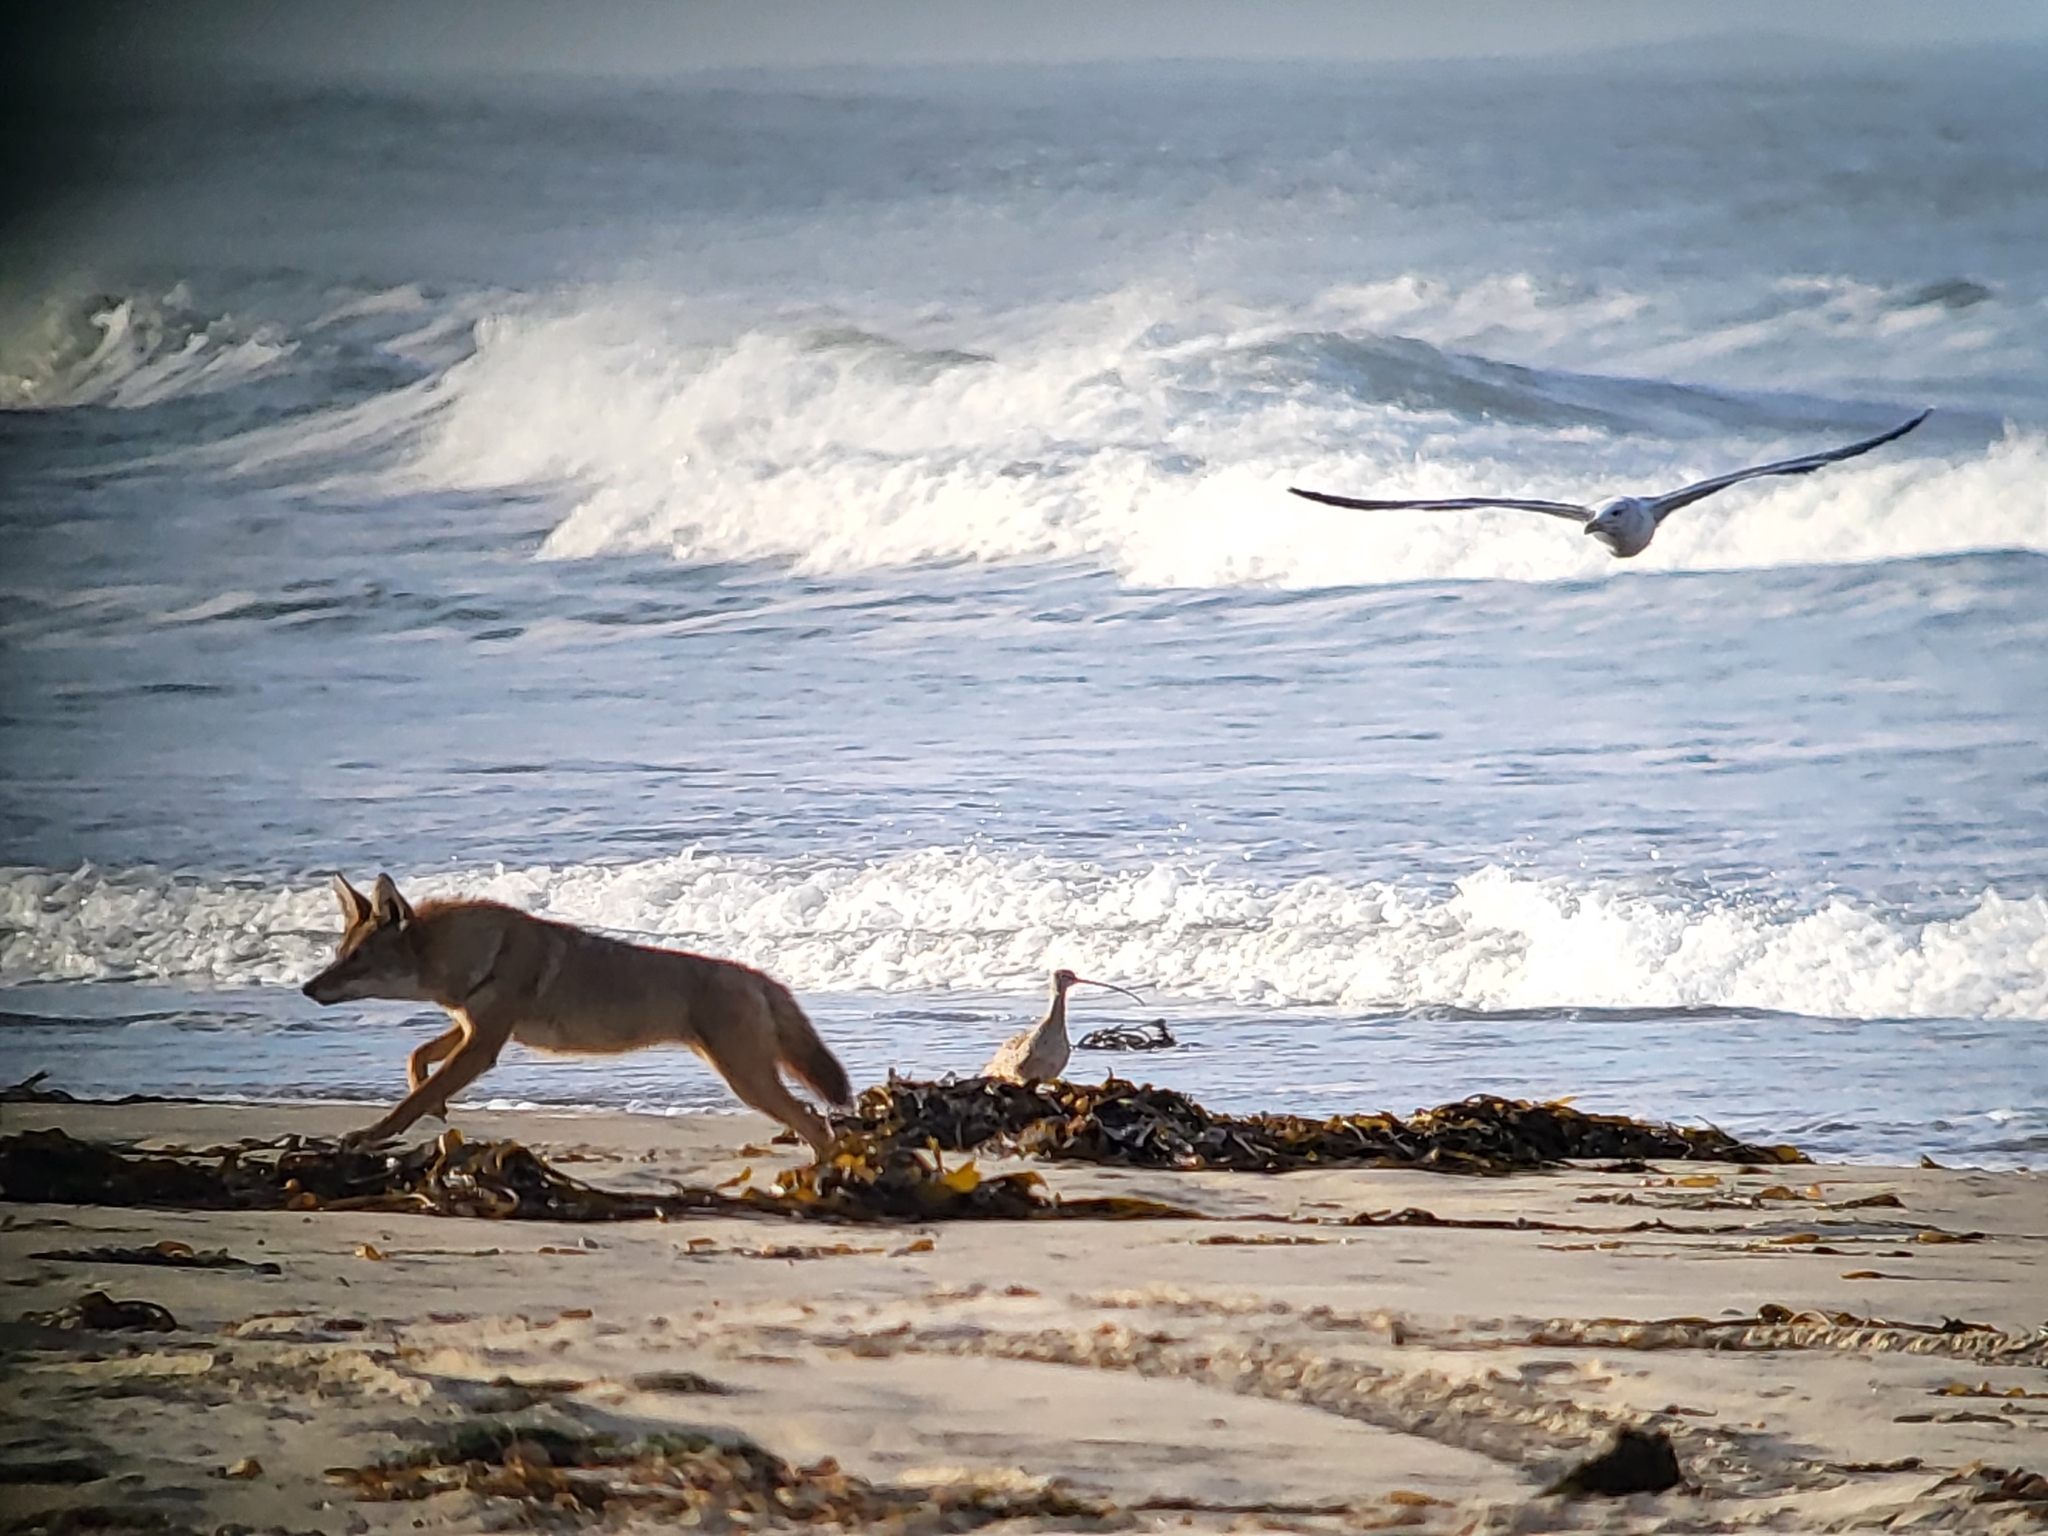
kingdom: Animalia
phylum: Chordata
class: Mammalia
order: Carnivora
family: Canidae
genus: Canis
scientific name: Canis latrans
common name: Coyote
